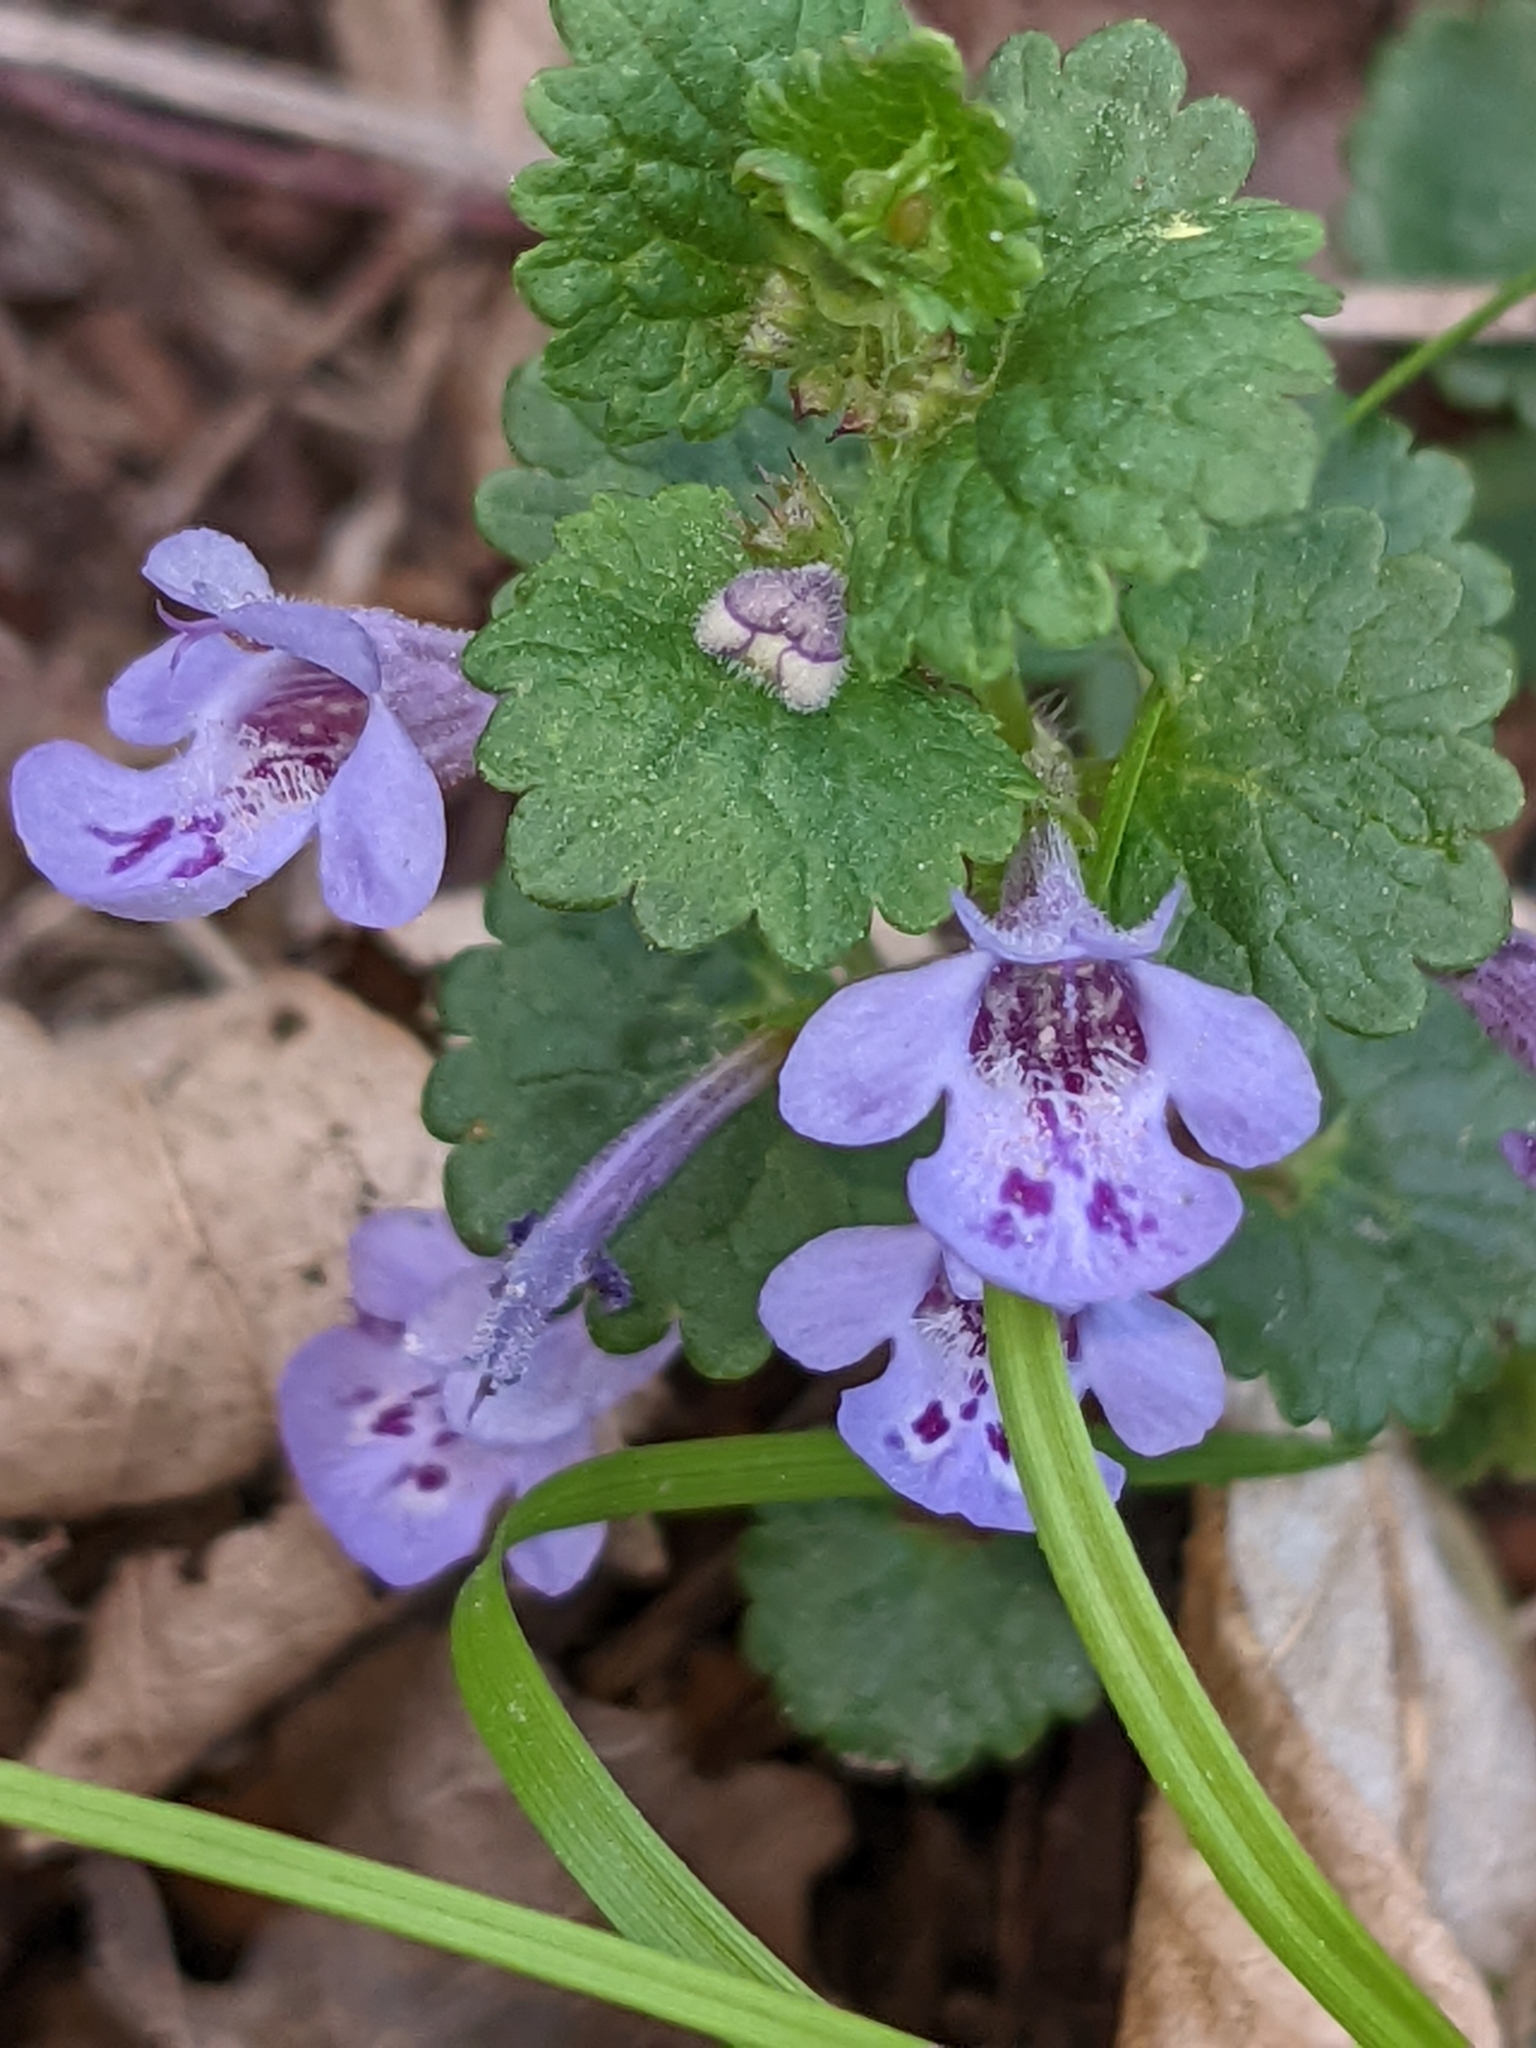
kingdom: Plantae
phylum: Tracheophyta
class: Magnoliopsida
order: Lamiales
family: Lamiaceae
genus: Glechoma
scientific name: Glechoma hederacea
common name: Ground ivy
